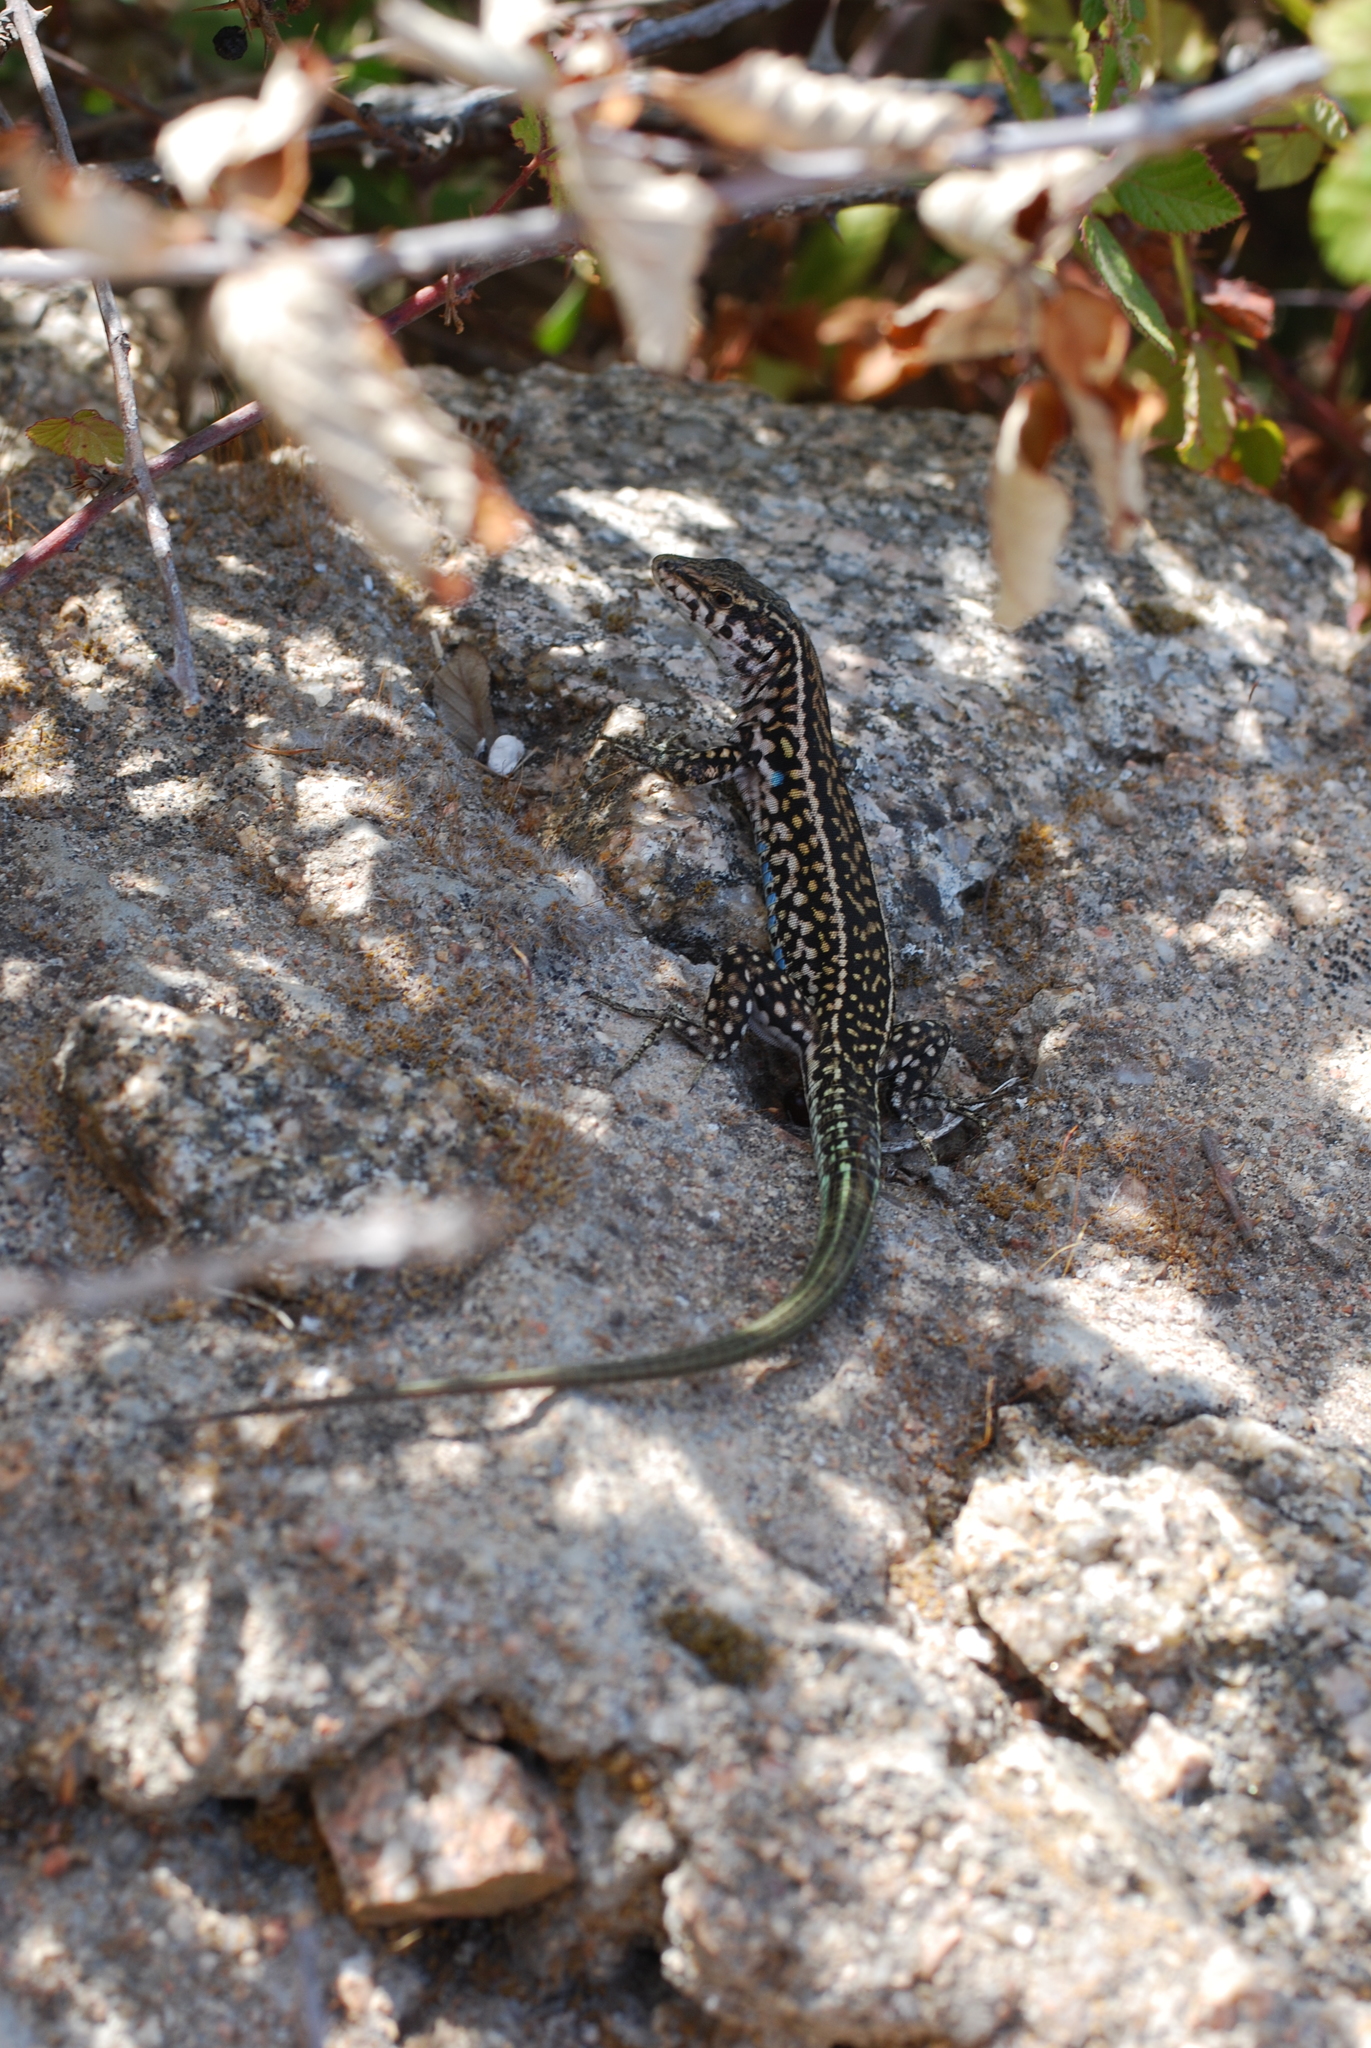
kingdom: Animalia
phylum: Chordata
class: Squamata
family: Lacertidae
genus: Podarcis
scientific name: Podarcis tiliguerta
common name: Tyrrhenian wall lizard
